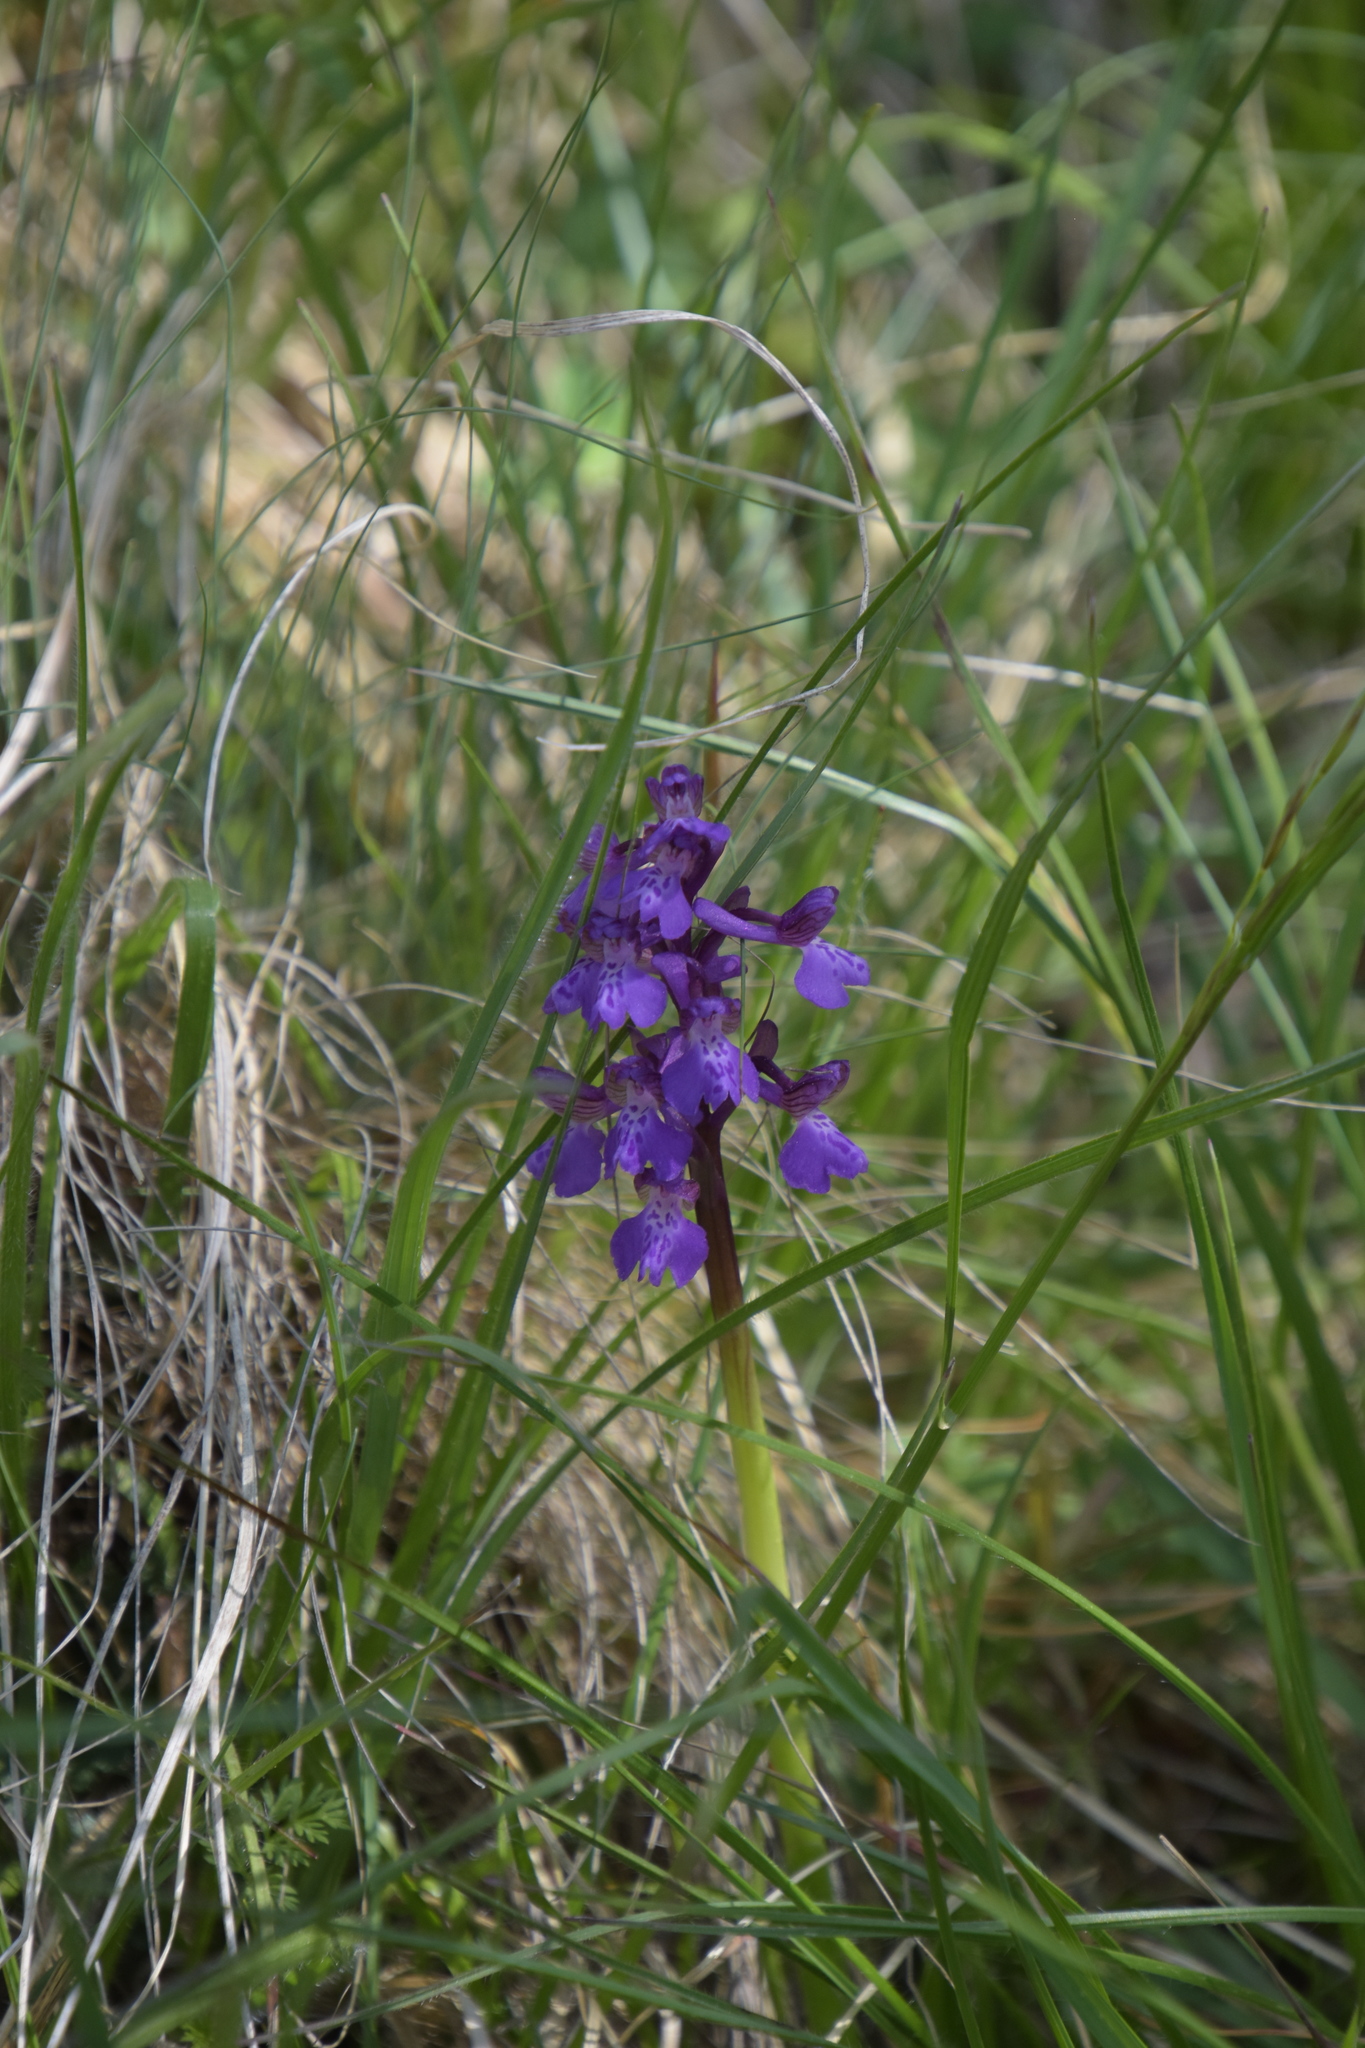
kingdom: Plantae
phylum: Tracheophyta
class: Liliopsida
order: Asparagales
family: Orchidaceae
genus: Anacamptis
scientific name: Anacamptis morio
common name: Green-winged orchid
